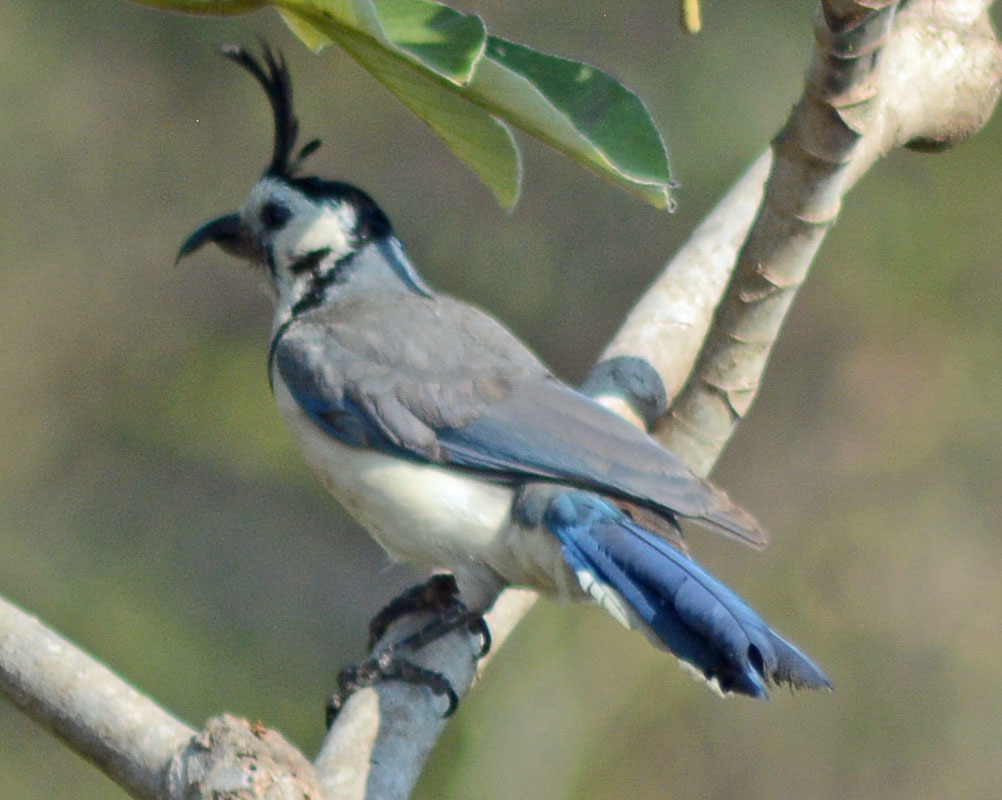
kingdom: Animalia
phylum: Chordata
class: Aves
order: Passeriformes
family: Corvidae
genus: Calocitta
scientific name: Calocitta formosa
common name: White-throated magpie-jay
